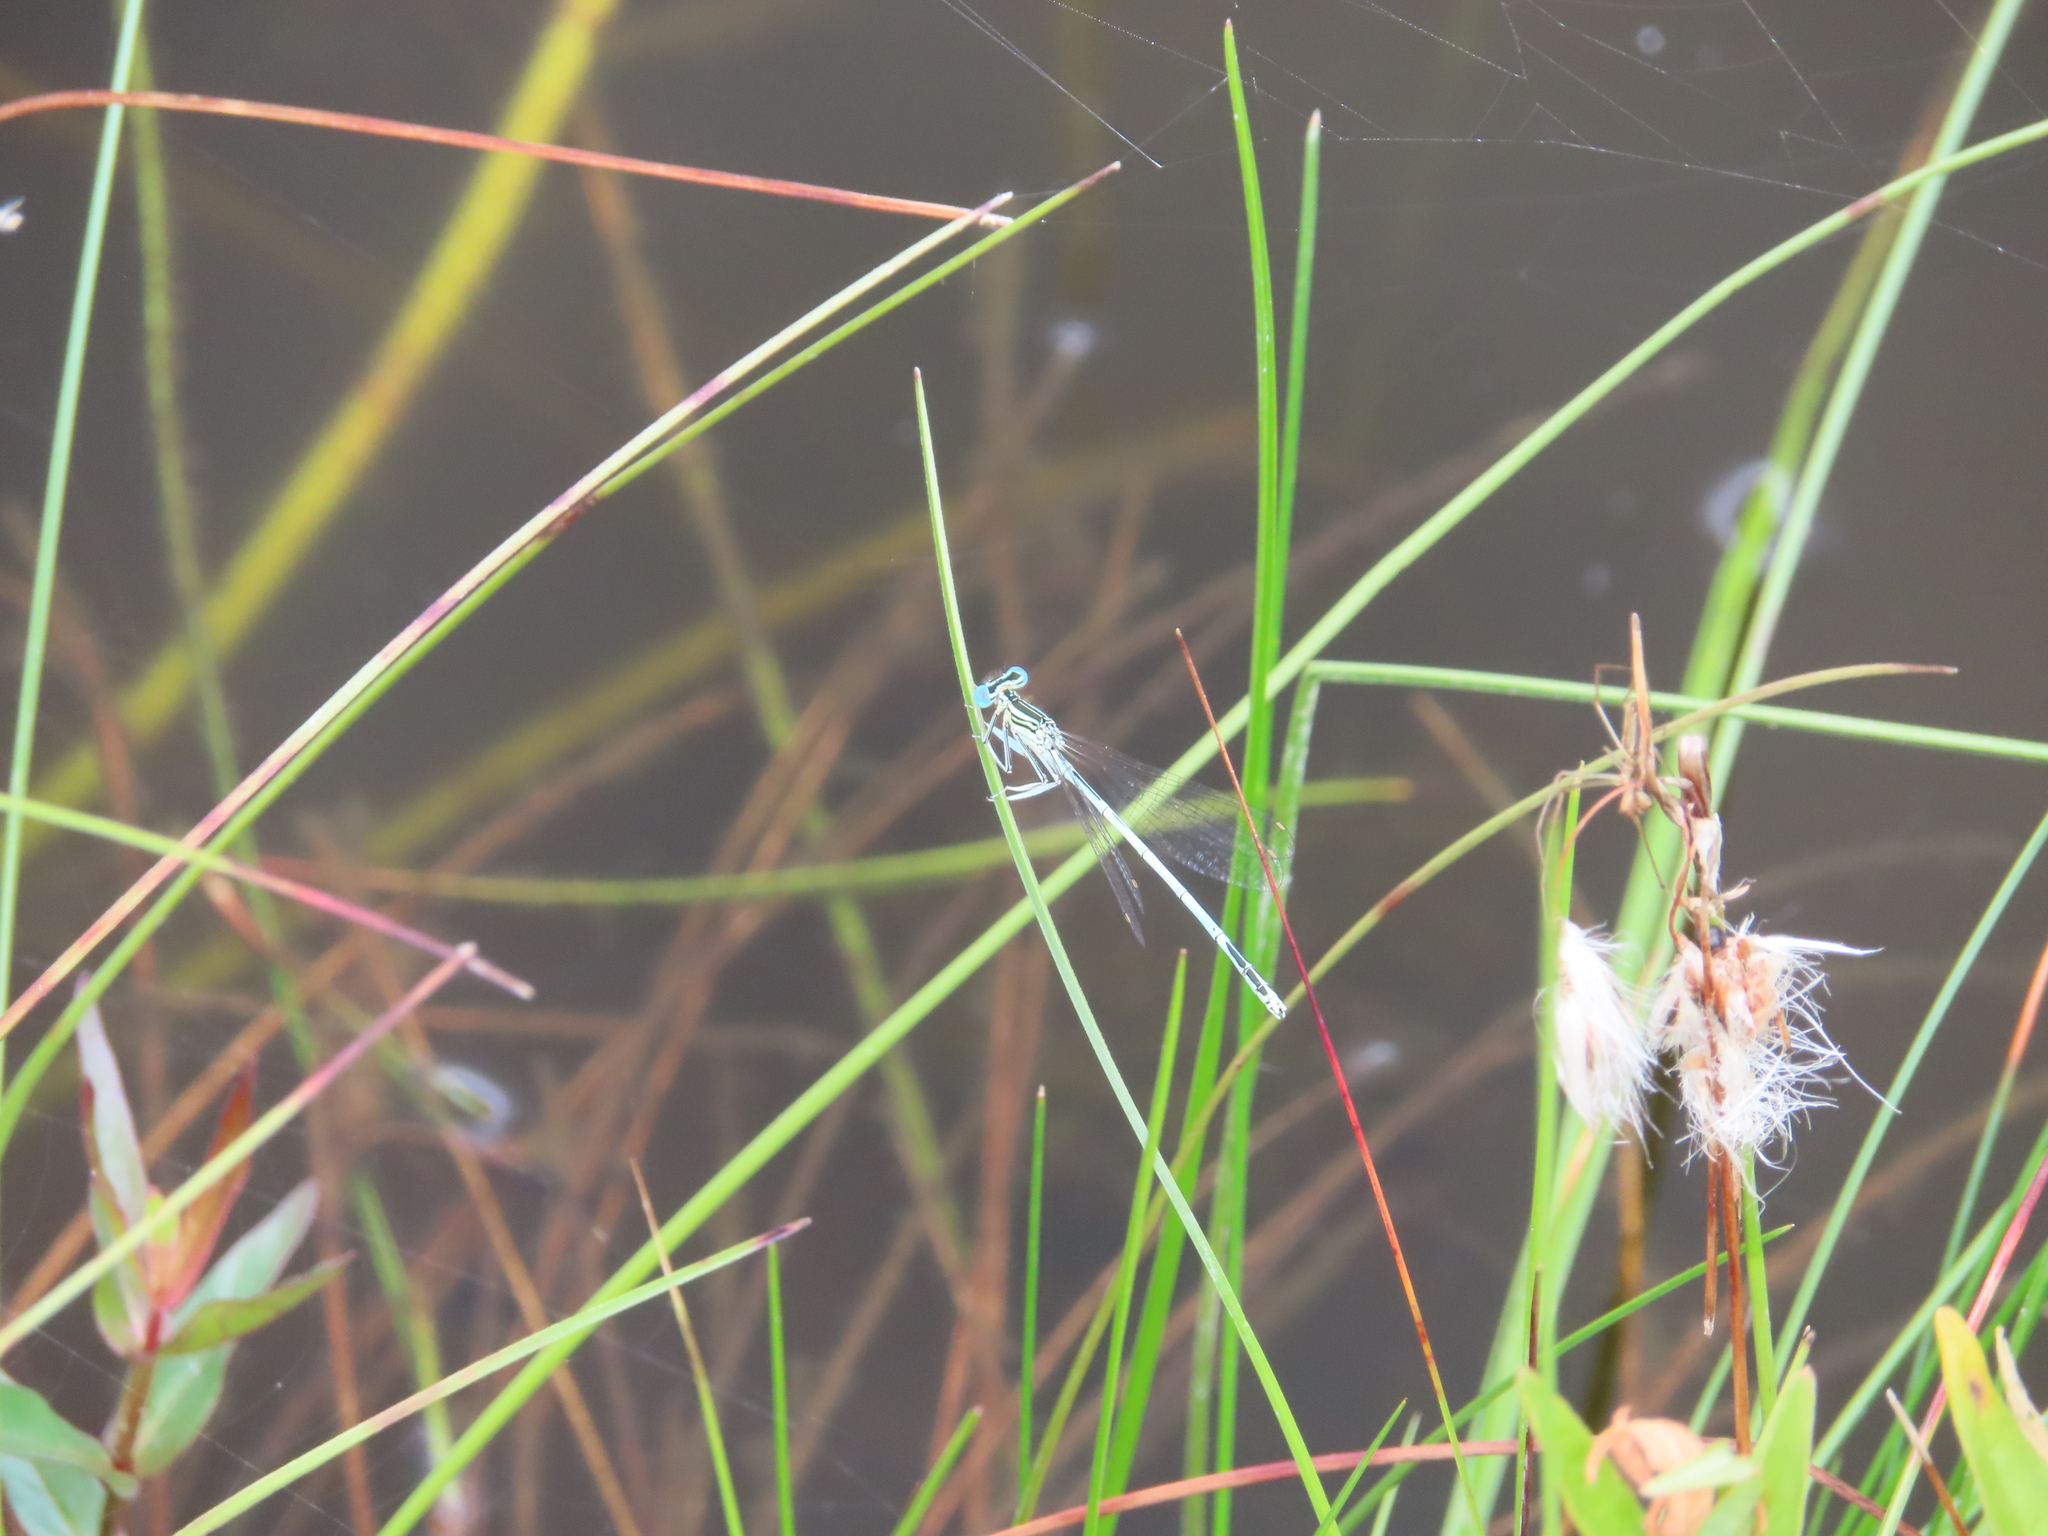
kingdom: Animalia
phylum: Arthropoda
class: Insecta
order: Odonata
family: Platycnemididae
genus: Platycnemis
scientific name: Platycnemis pennipes
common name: White-legged damselfly
